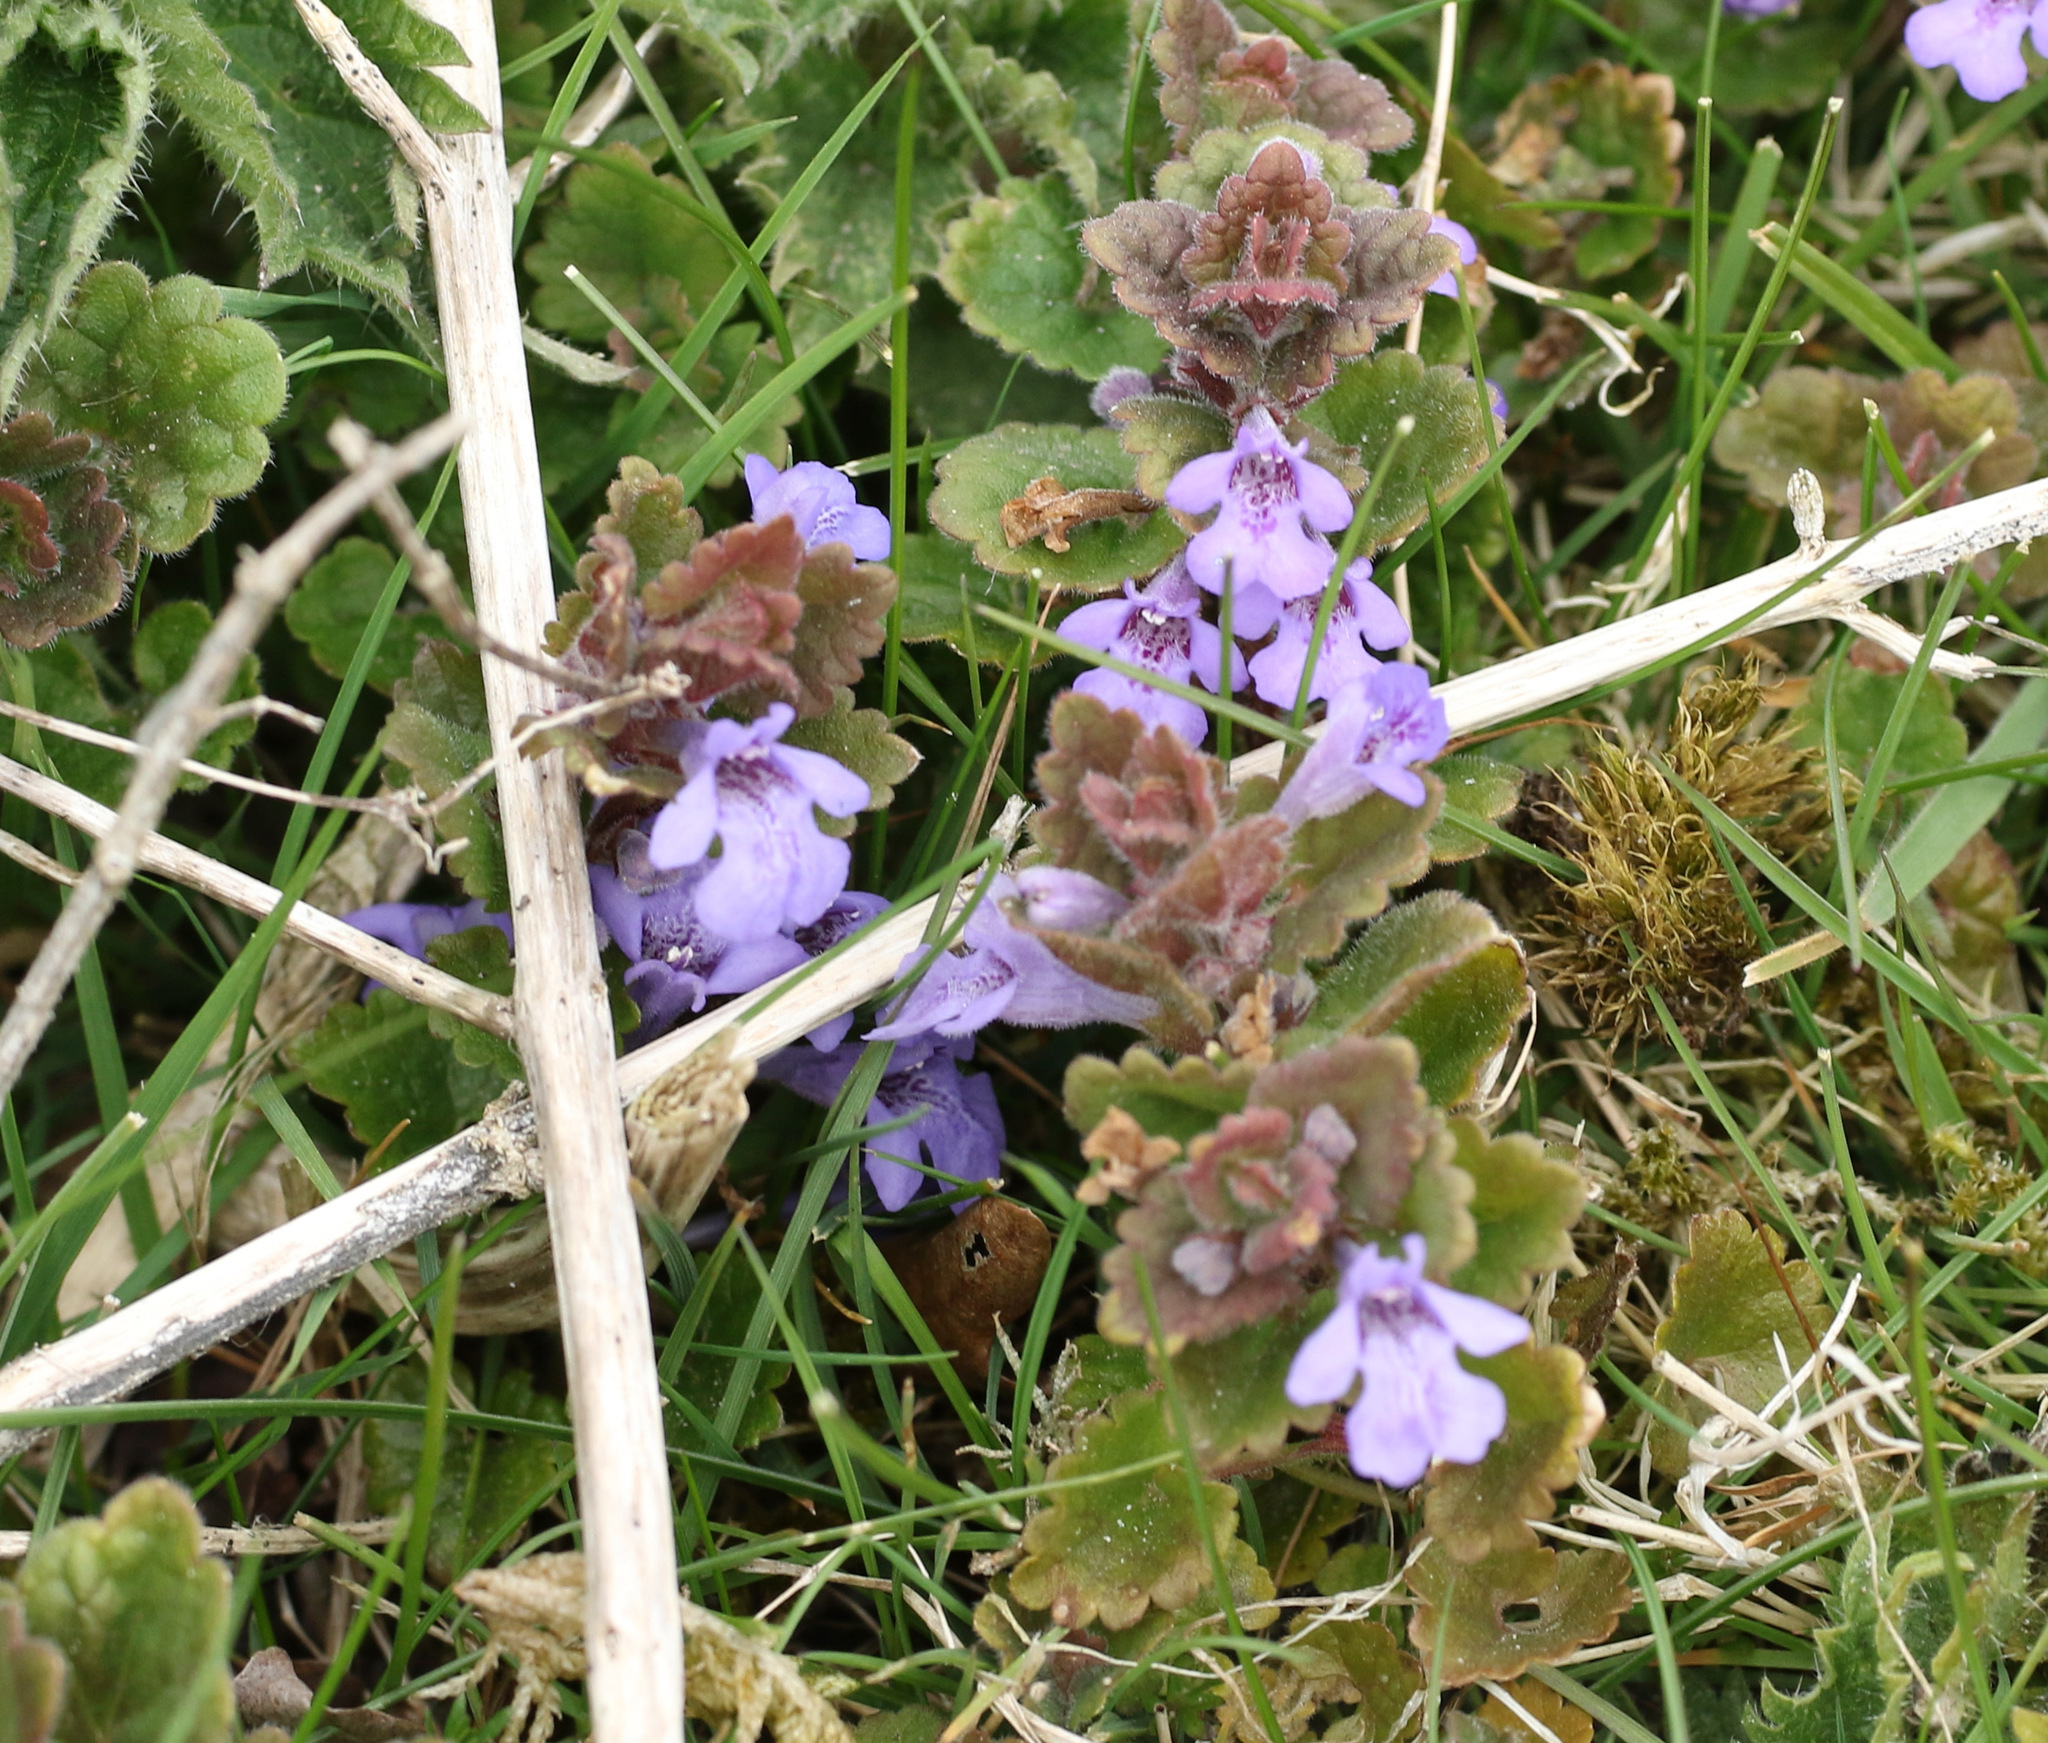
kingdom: Plantae
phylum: Tracheophyta
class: Magnoliopsida
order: Lamiales
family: Lamiaceae
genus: Glechoma
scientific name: Glechoma hederacea
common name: Ground ivy
